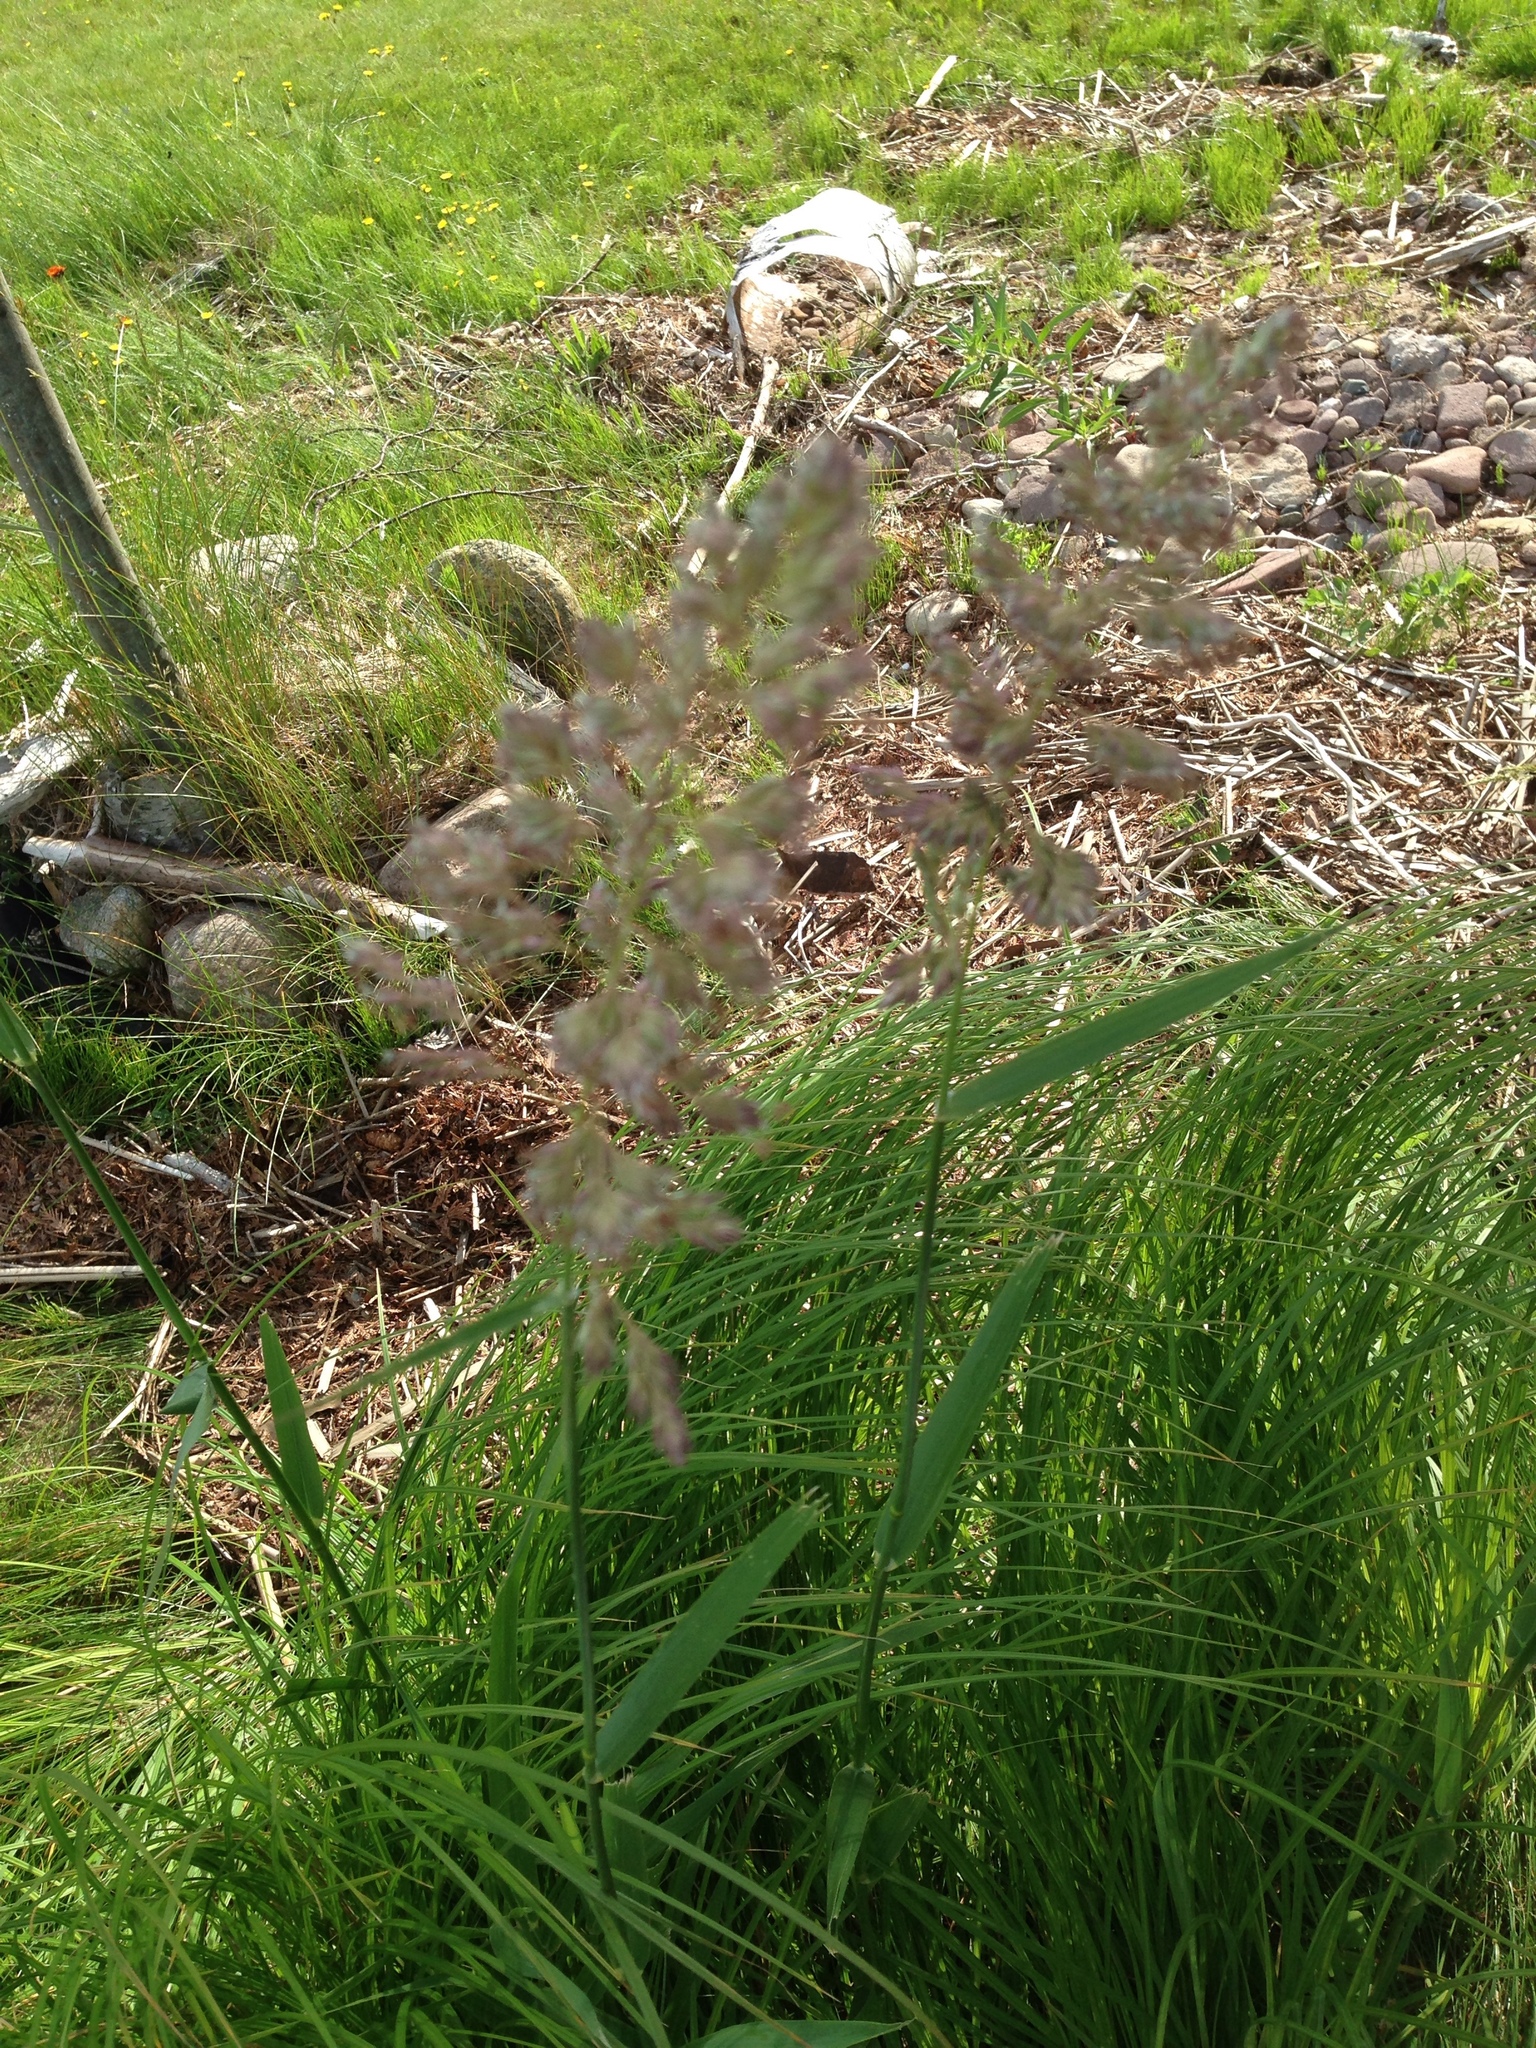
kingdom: Plantae
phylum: Tracheophyta
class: Liliopsida
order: Poales
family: Poaceae
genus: Phalaris
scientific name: Phalaris arundinacea
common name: Reed canary-grass
